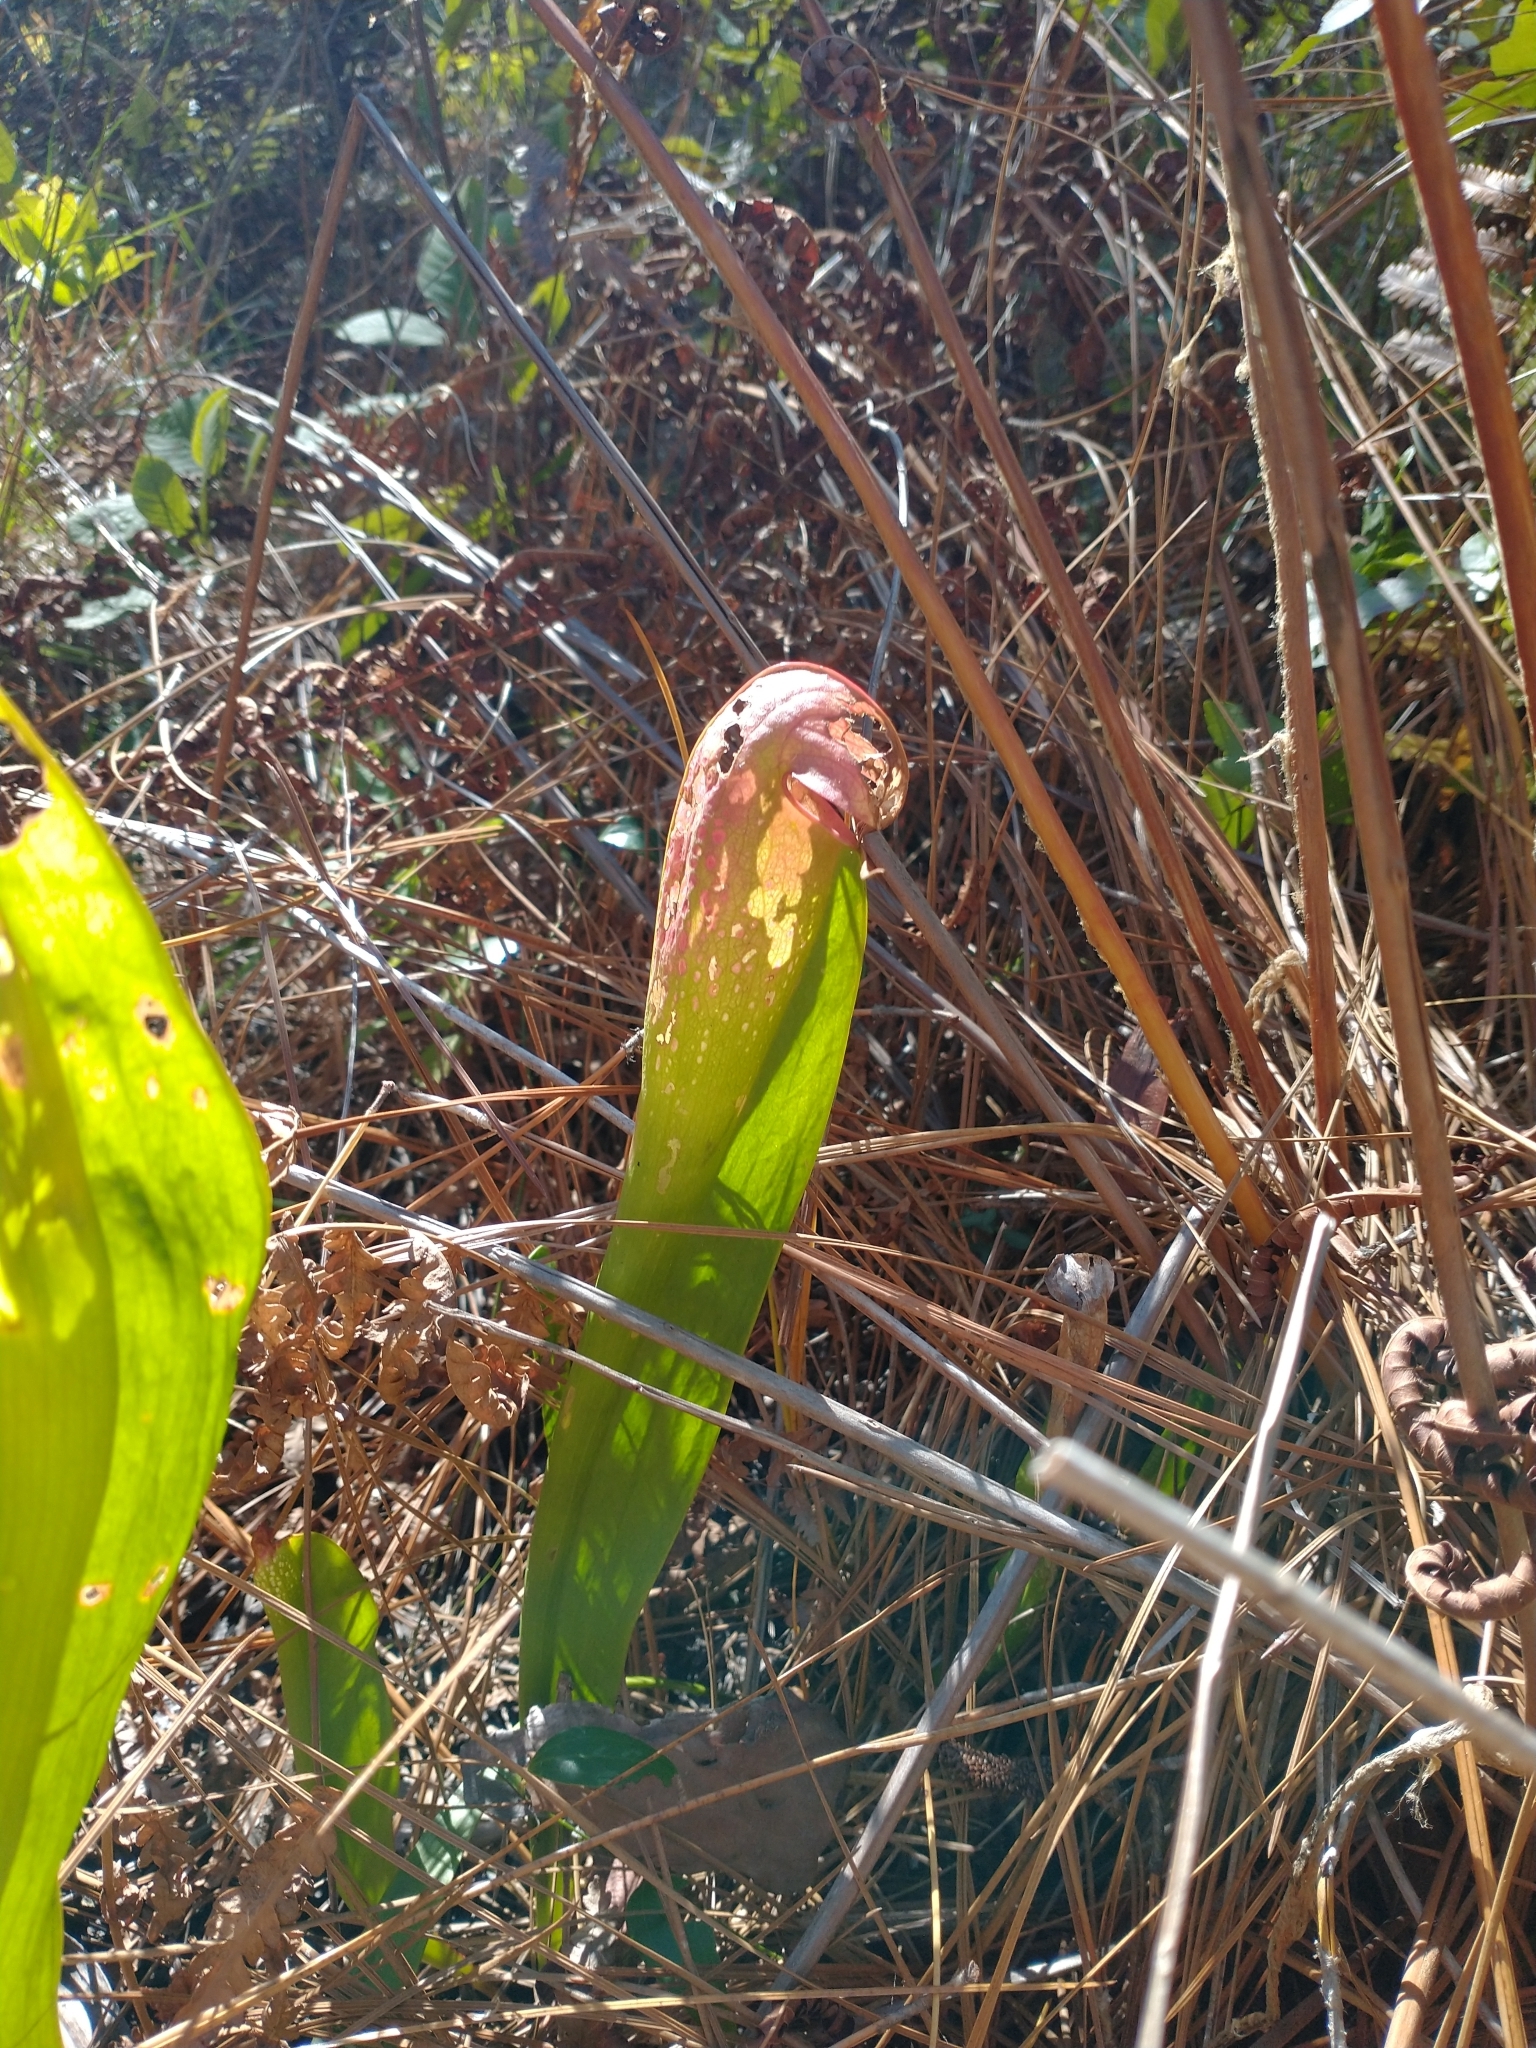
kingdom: Plantae
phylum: Tracheophyta
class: Magnoliopsida
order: Ericales
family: Sarraceniaceae
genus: Sarracenia
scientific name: Sarracenia minor
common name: Rainhat-trumpet
